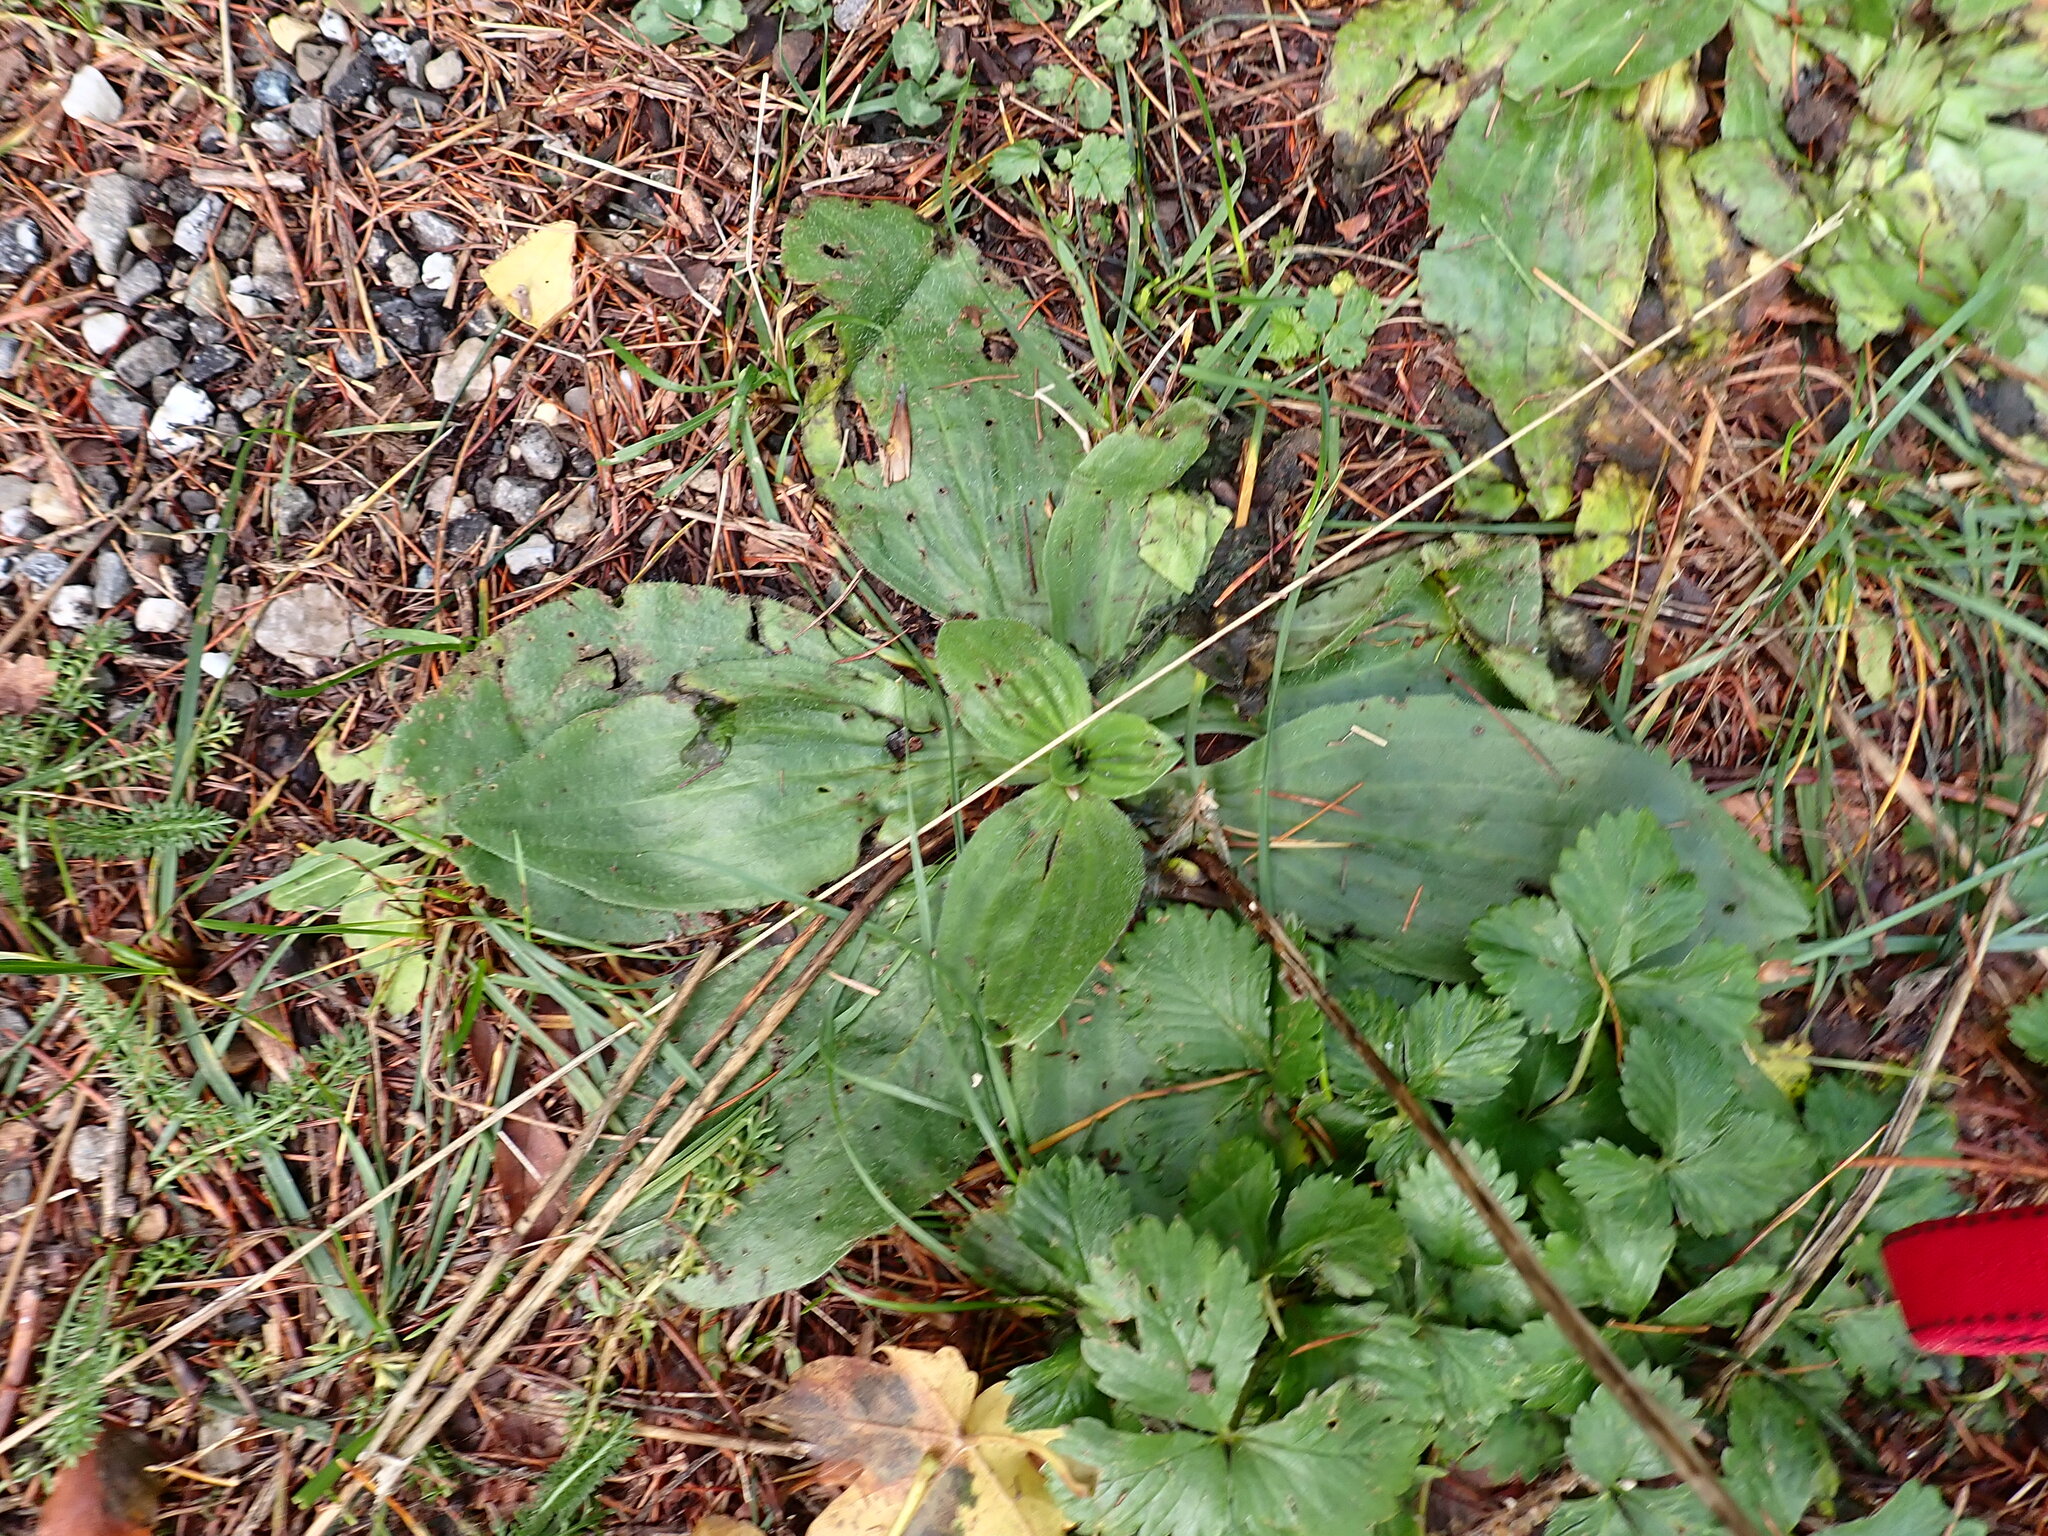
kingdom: Plantae
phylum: Tracheophyta
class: Magnoliopsida
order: Lamiales
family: Plantaginaceae
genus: Plantago
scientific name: Plantago major
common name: Common plantain
